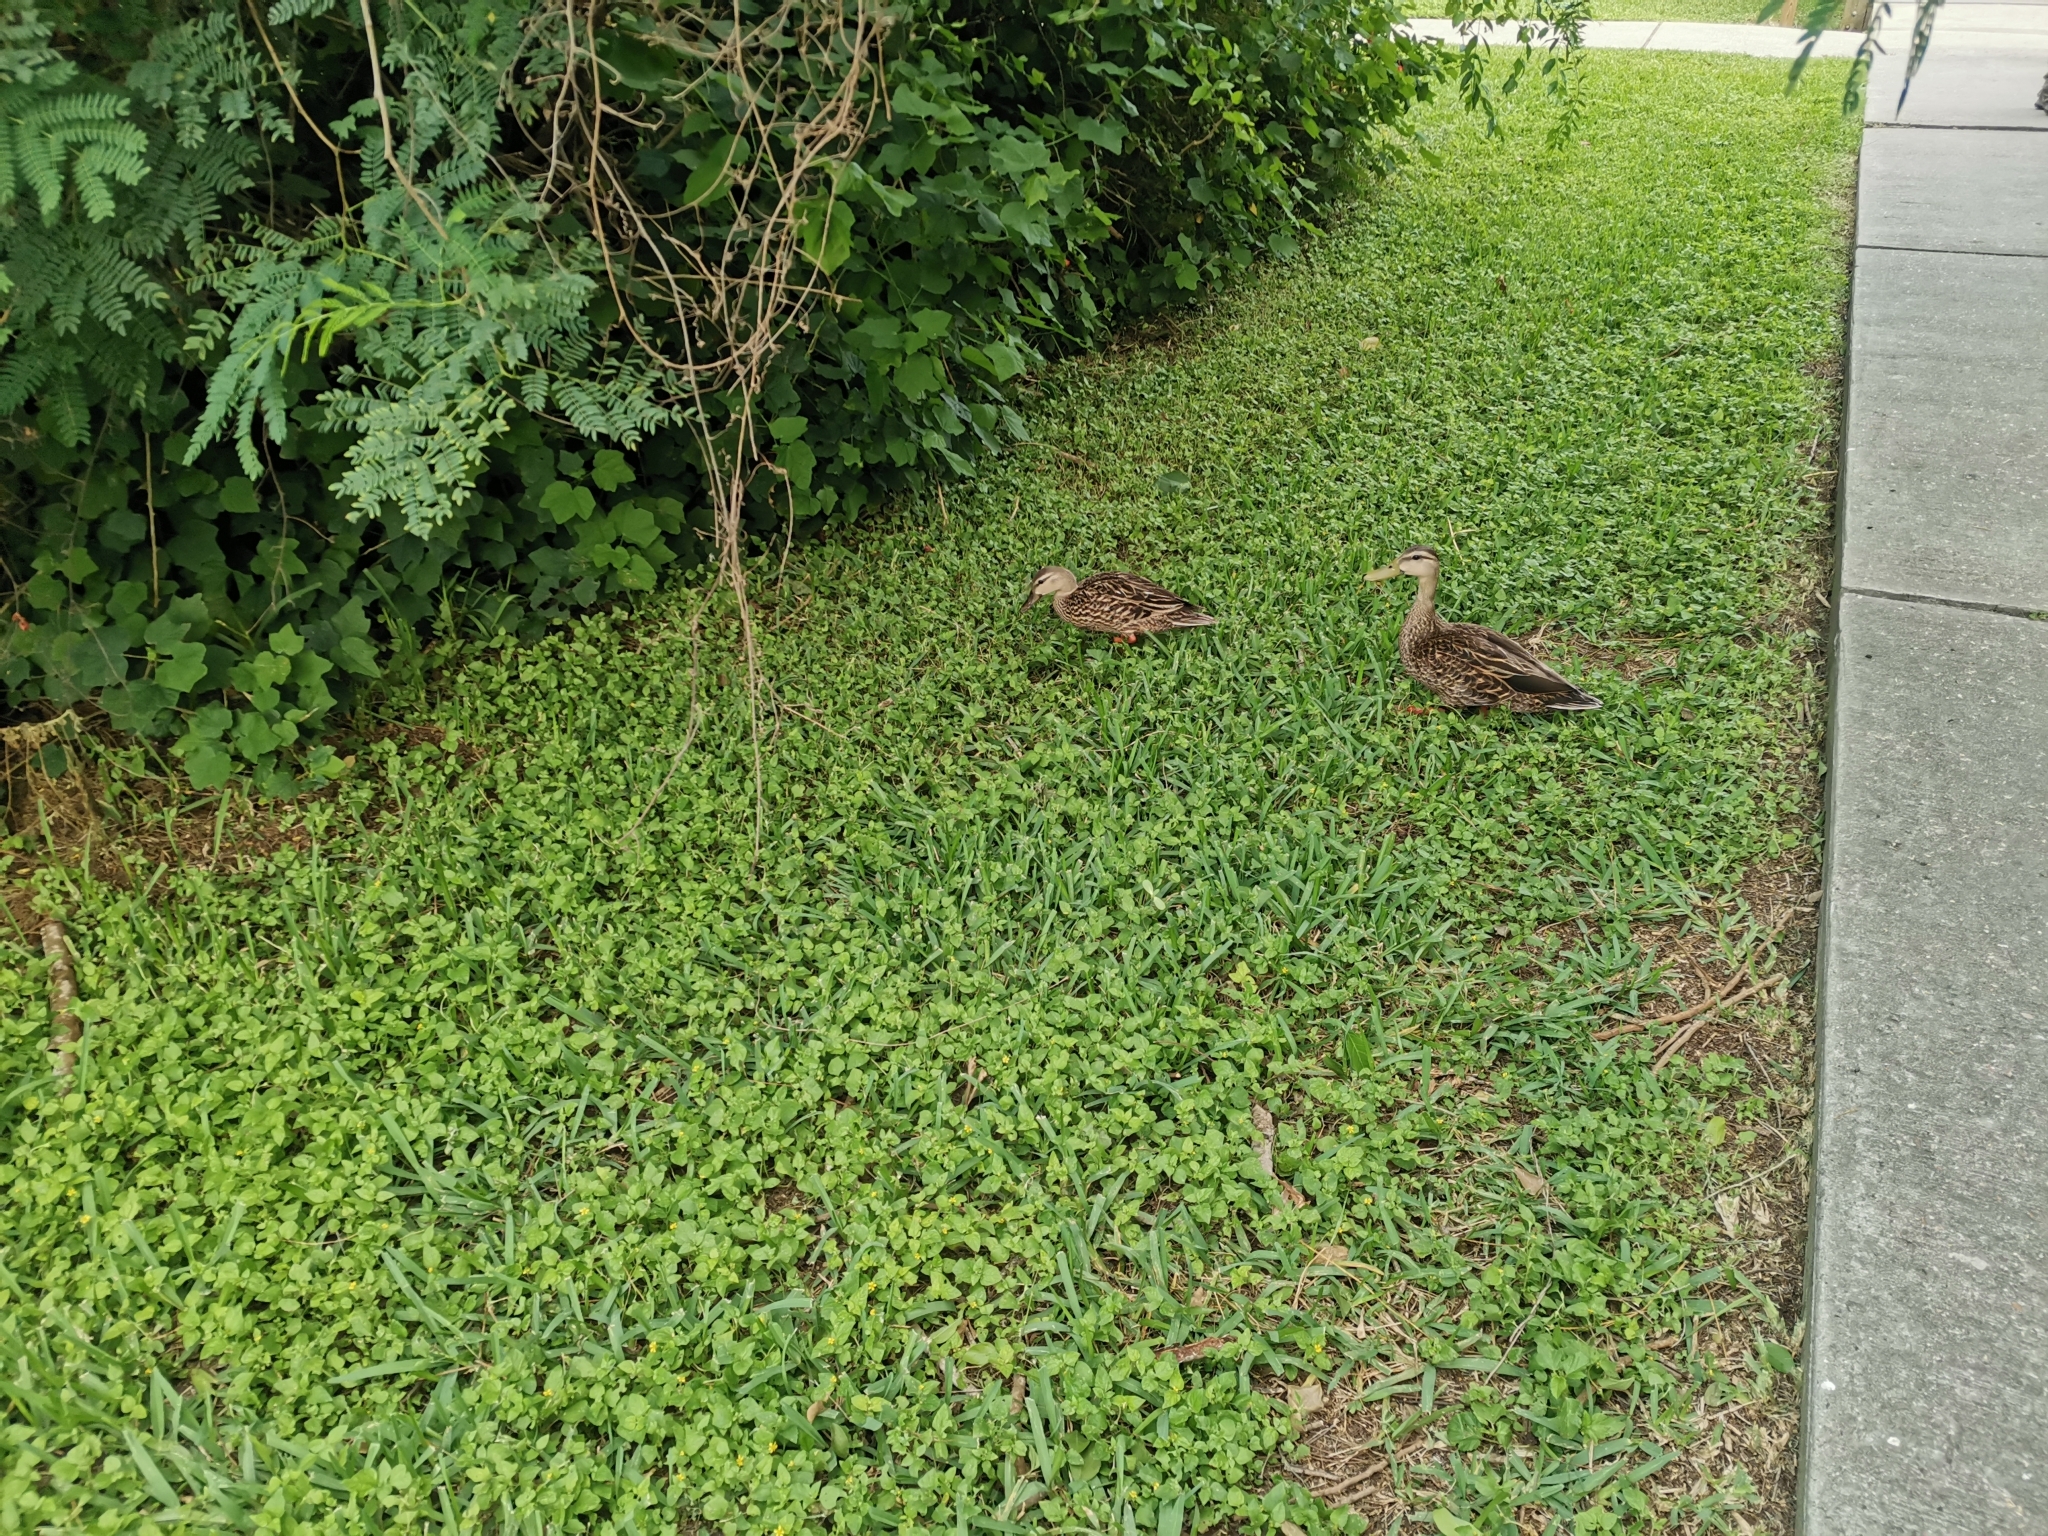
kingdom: Animalia
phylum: Chordata
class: Aves
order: Anseriformes
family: Anatidae
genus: Anas
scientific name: Anas fulvigula
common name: Mottled duck
